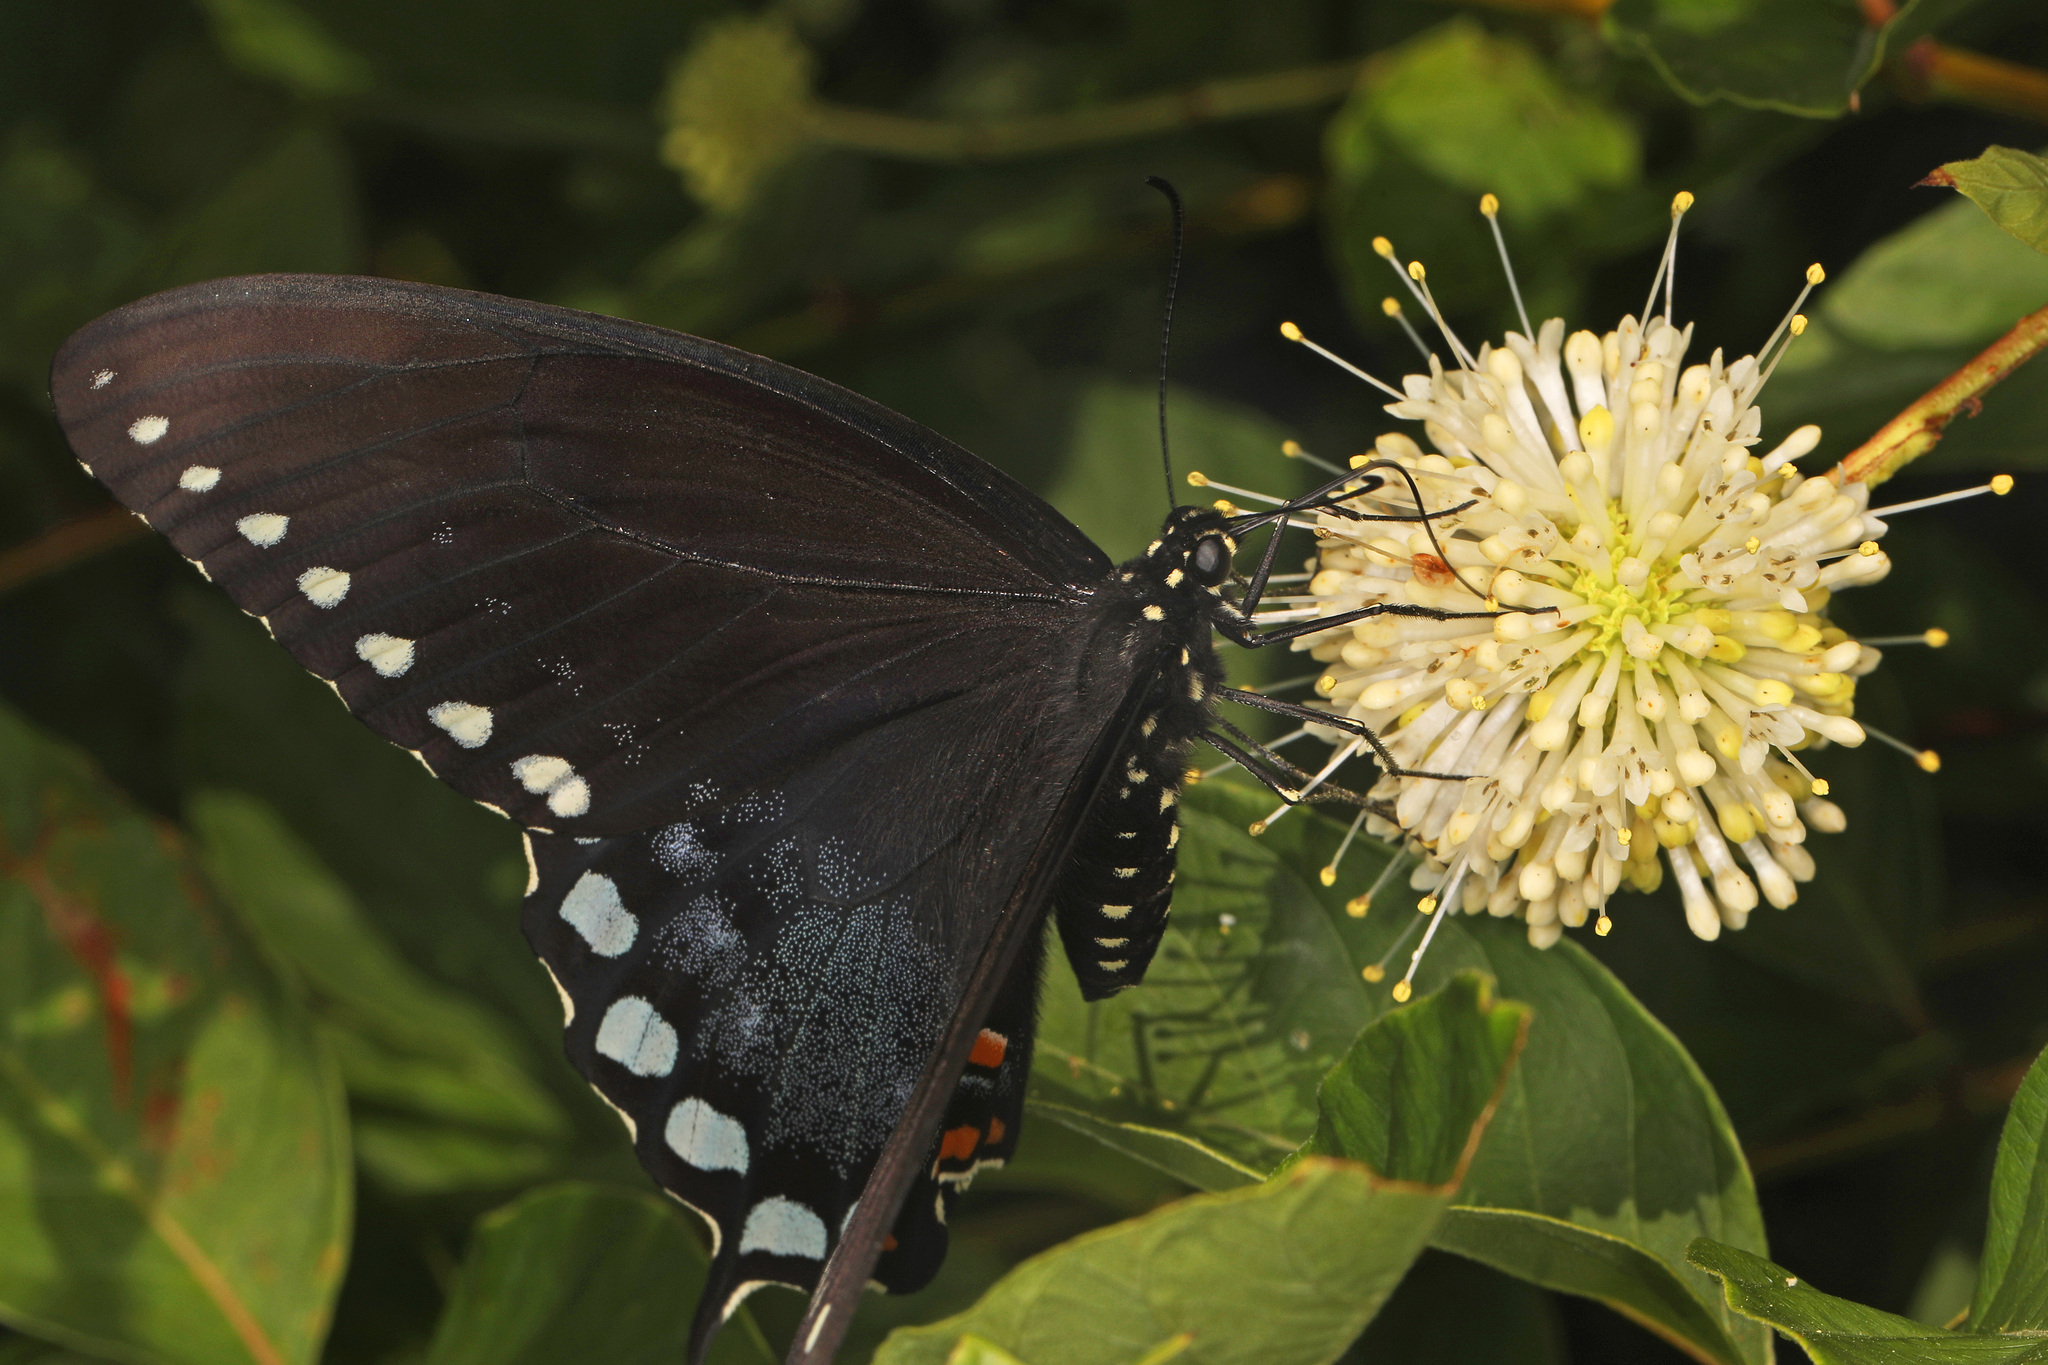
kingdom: Animalia
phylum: Arthropoda
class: Insecta
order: Lepidoptera
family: Papilionidae
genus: Papilio
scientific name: Papilio troilus
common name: Spicebush swallowtail
